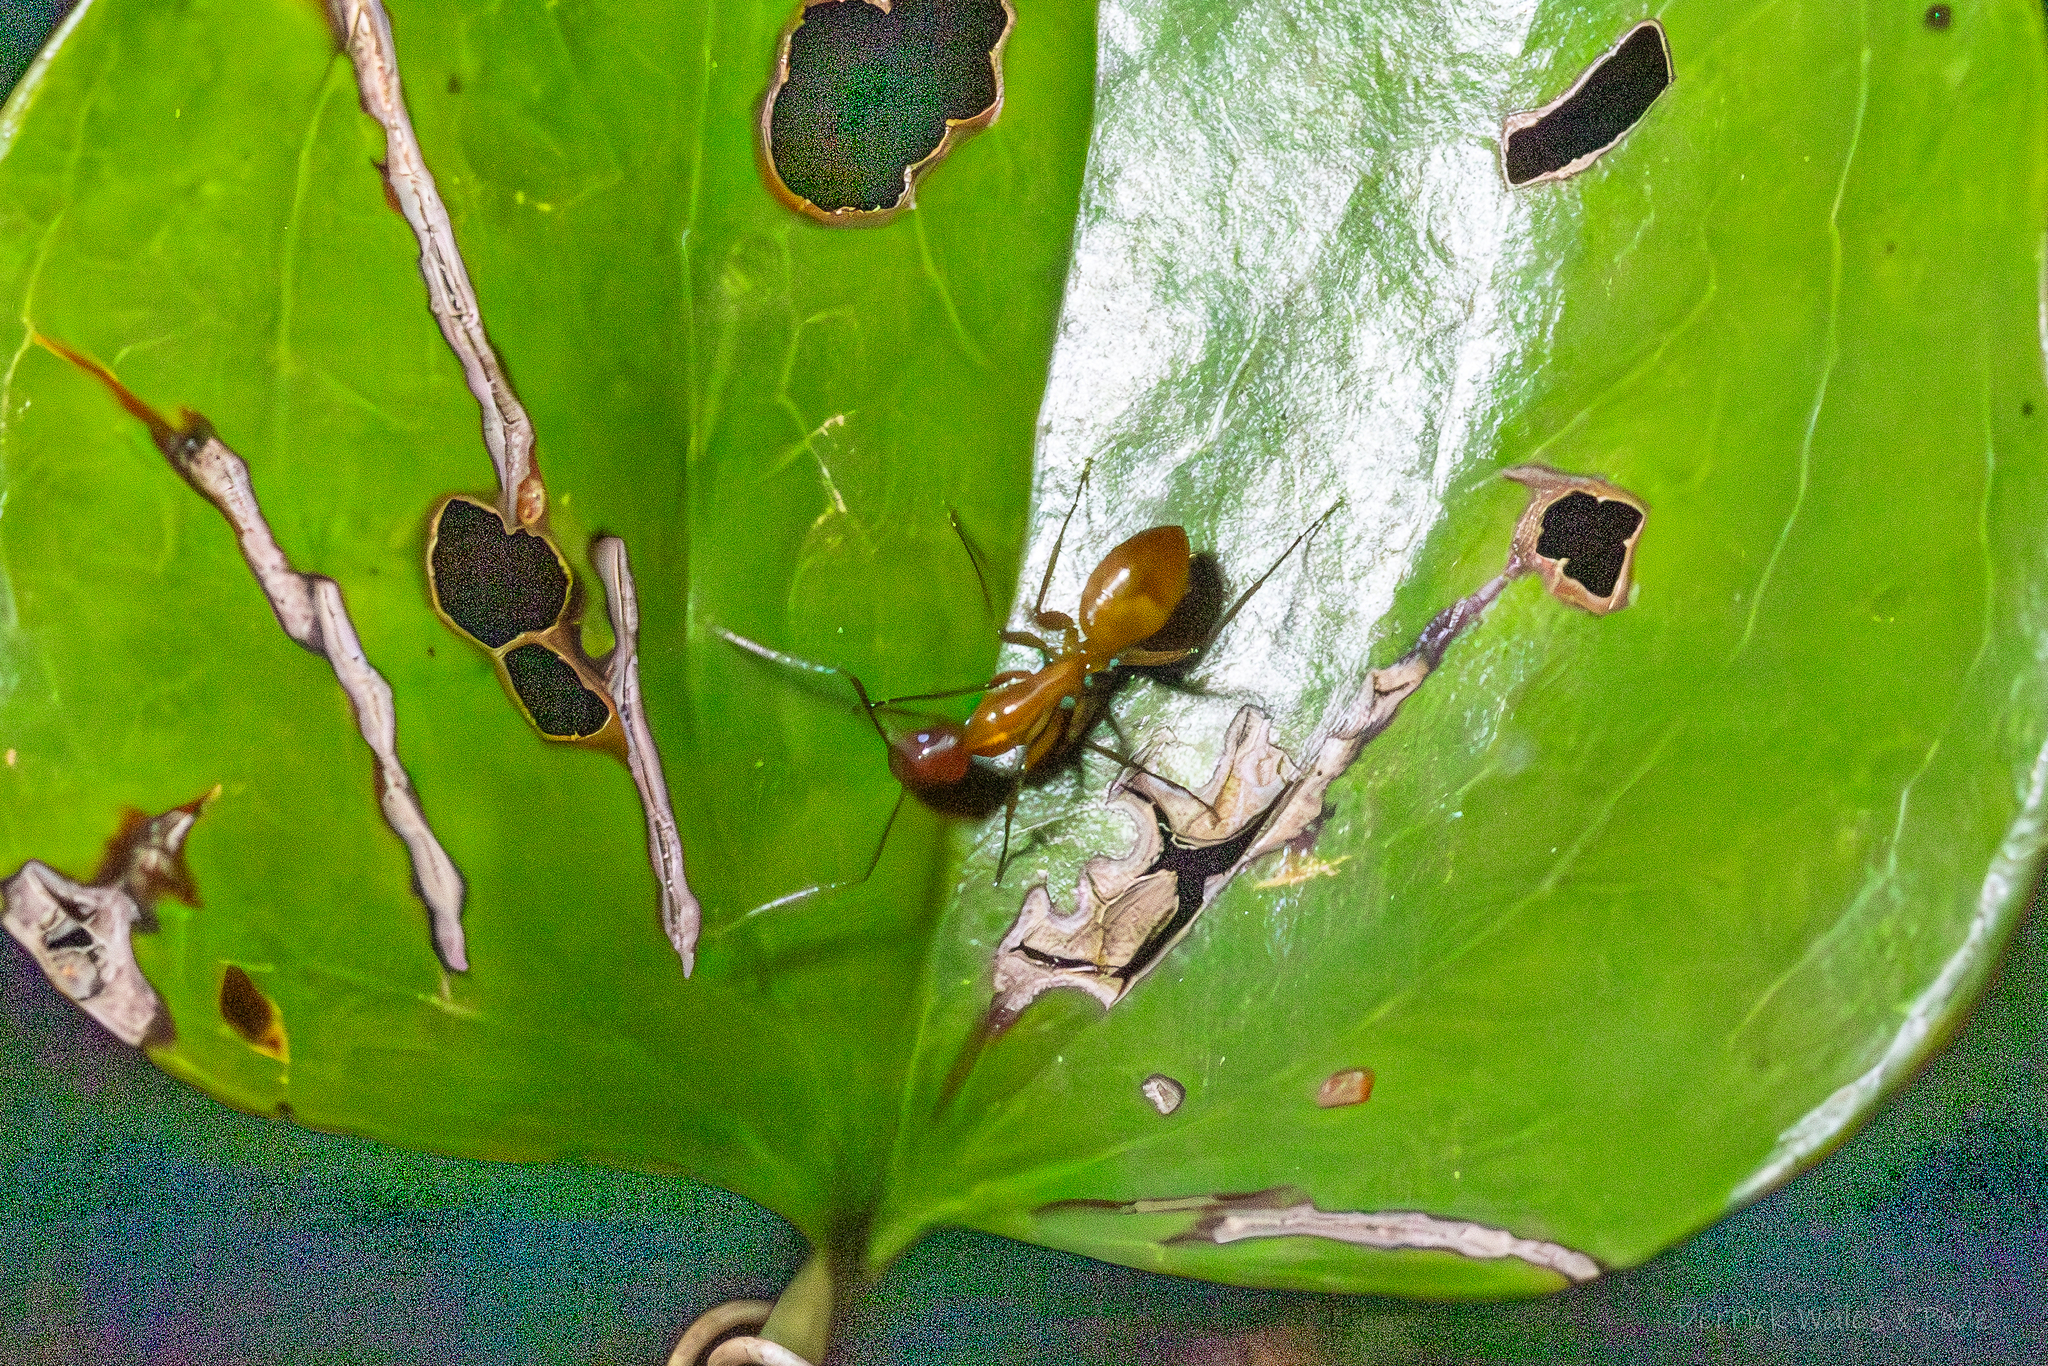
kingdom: Animalia
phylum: Arthropoda
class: Insecta
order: Hymenoptera
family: Formicidae
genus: Camponotus
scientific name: Camponotus castaneus
